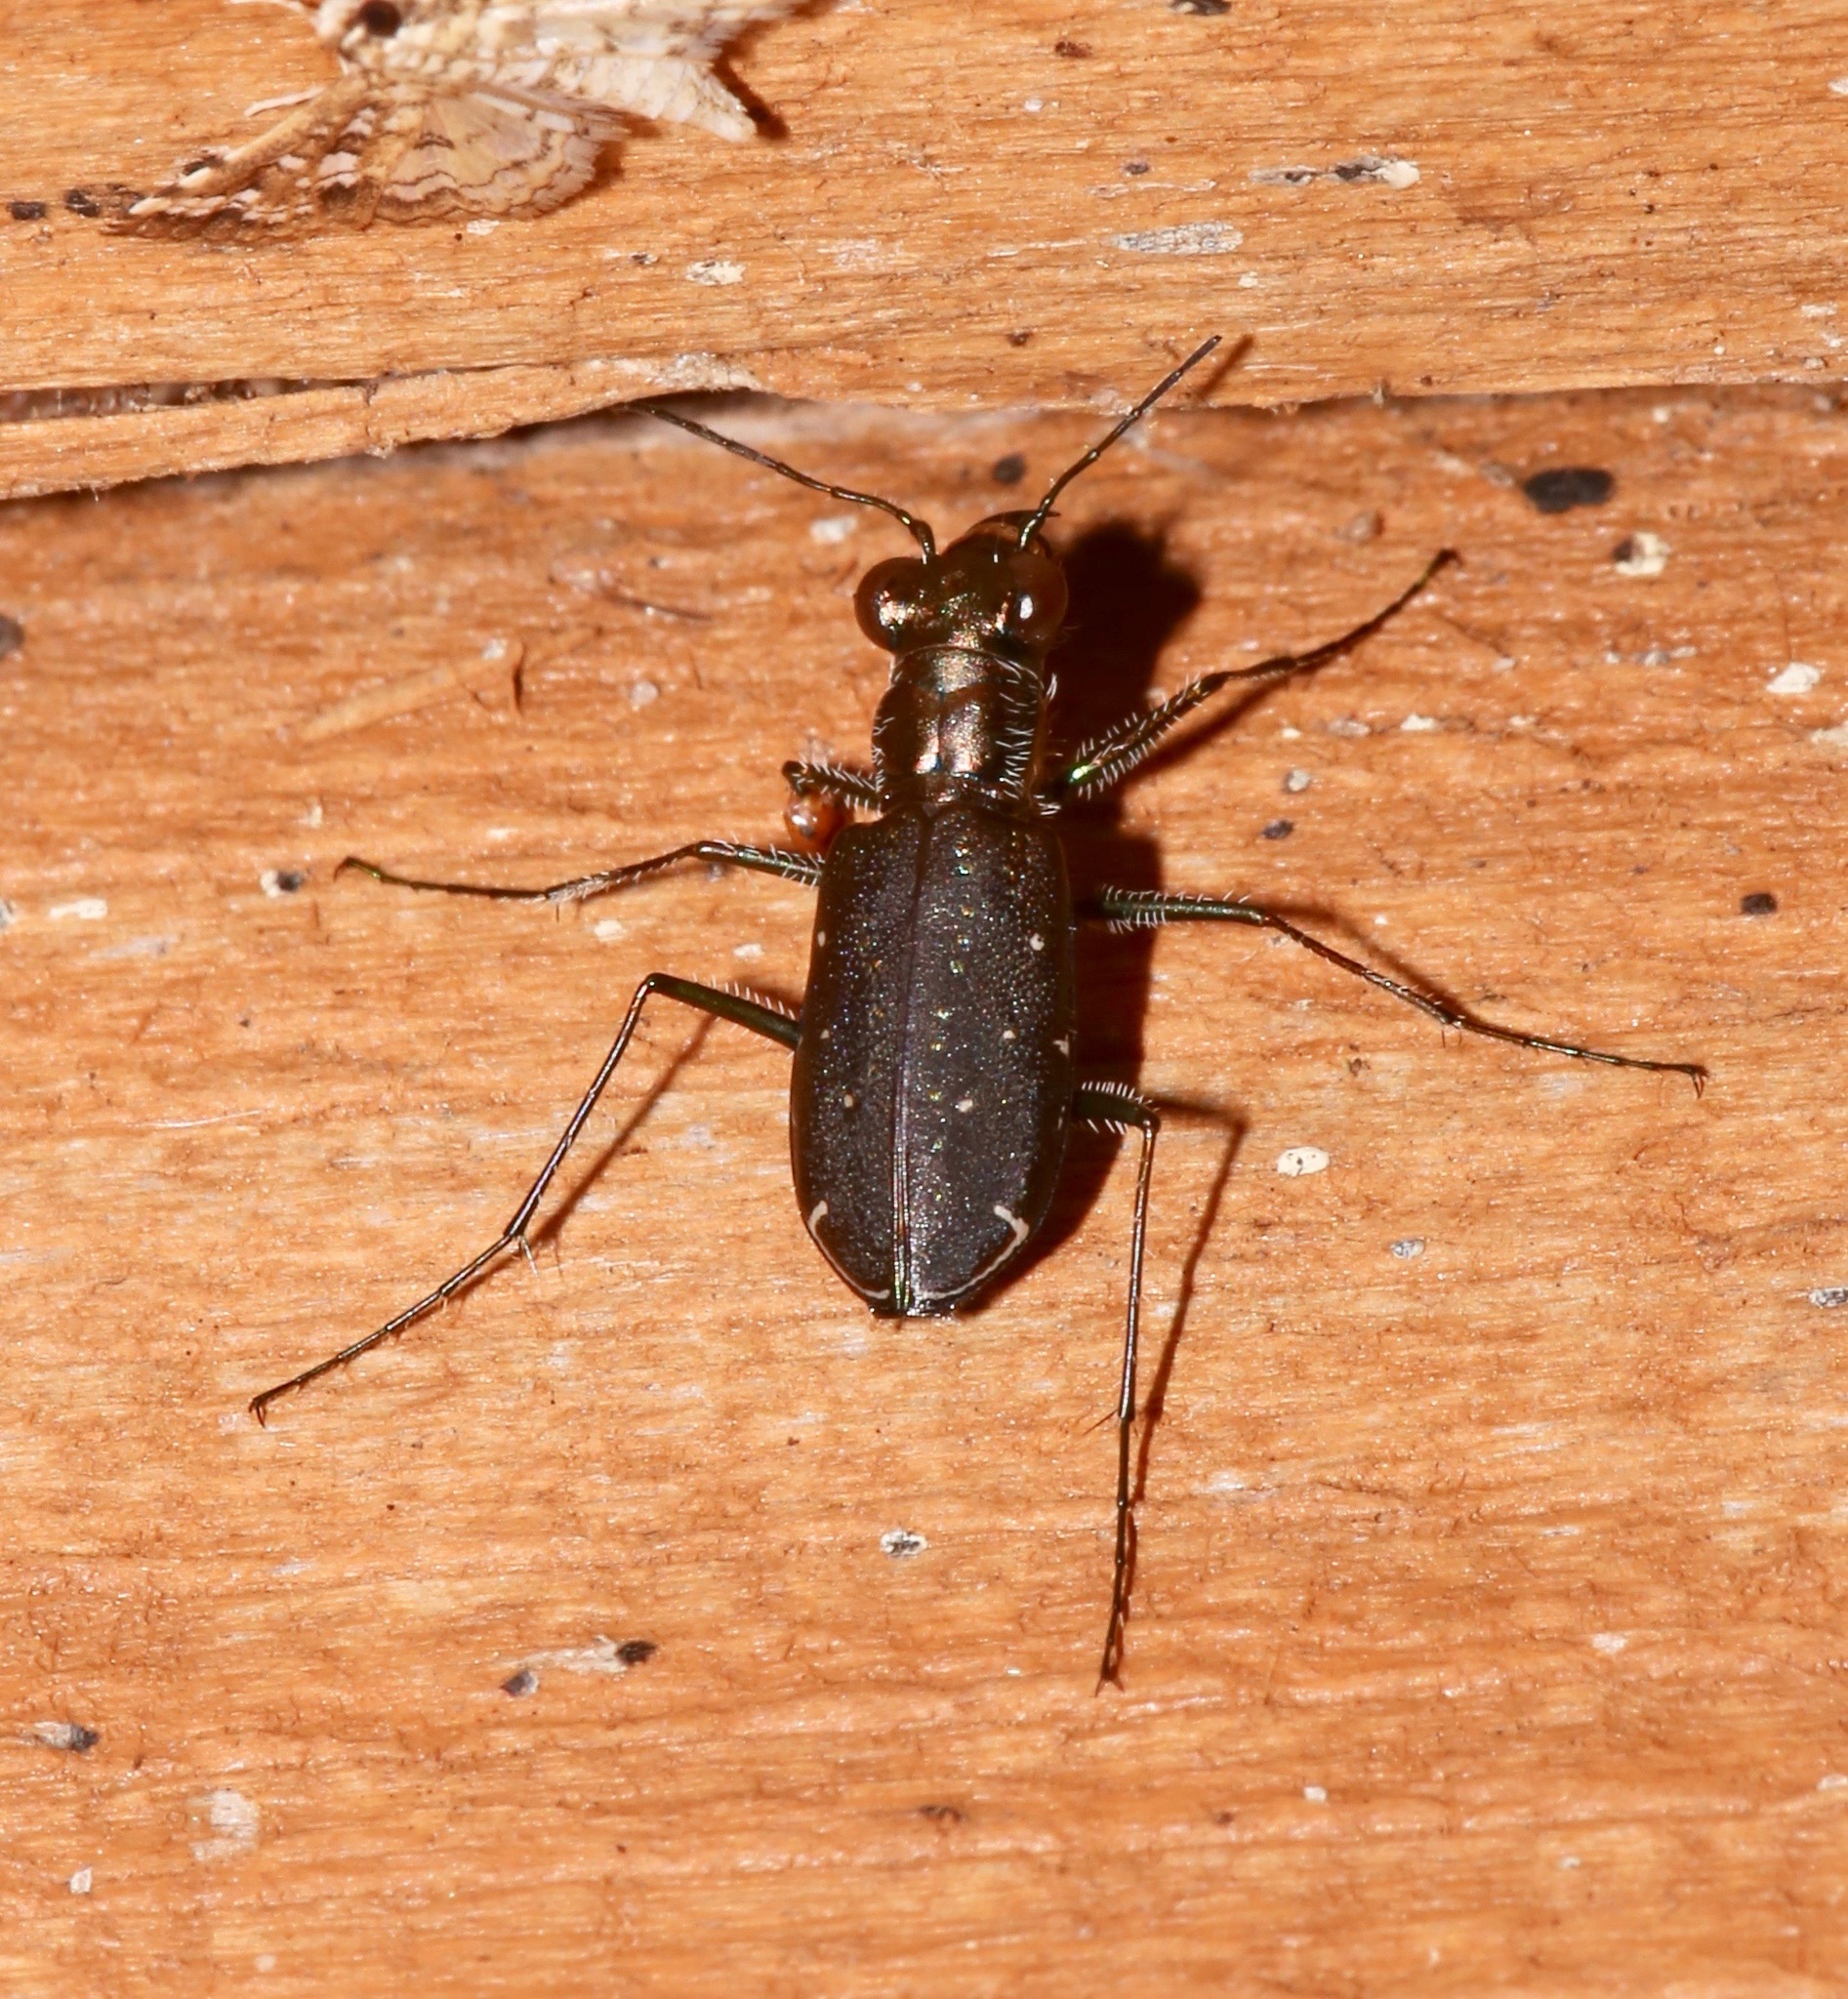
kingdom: Animalia
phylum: Arthropoda
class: Insecta
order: Coleoptera
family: Carabidae
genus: Cicindela
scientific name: Cicindela punctulata
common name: Punctured tiger beetle
